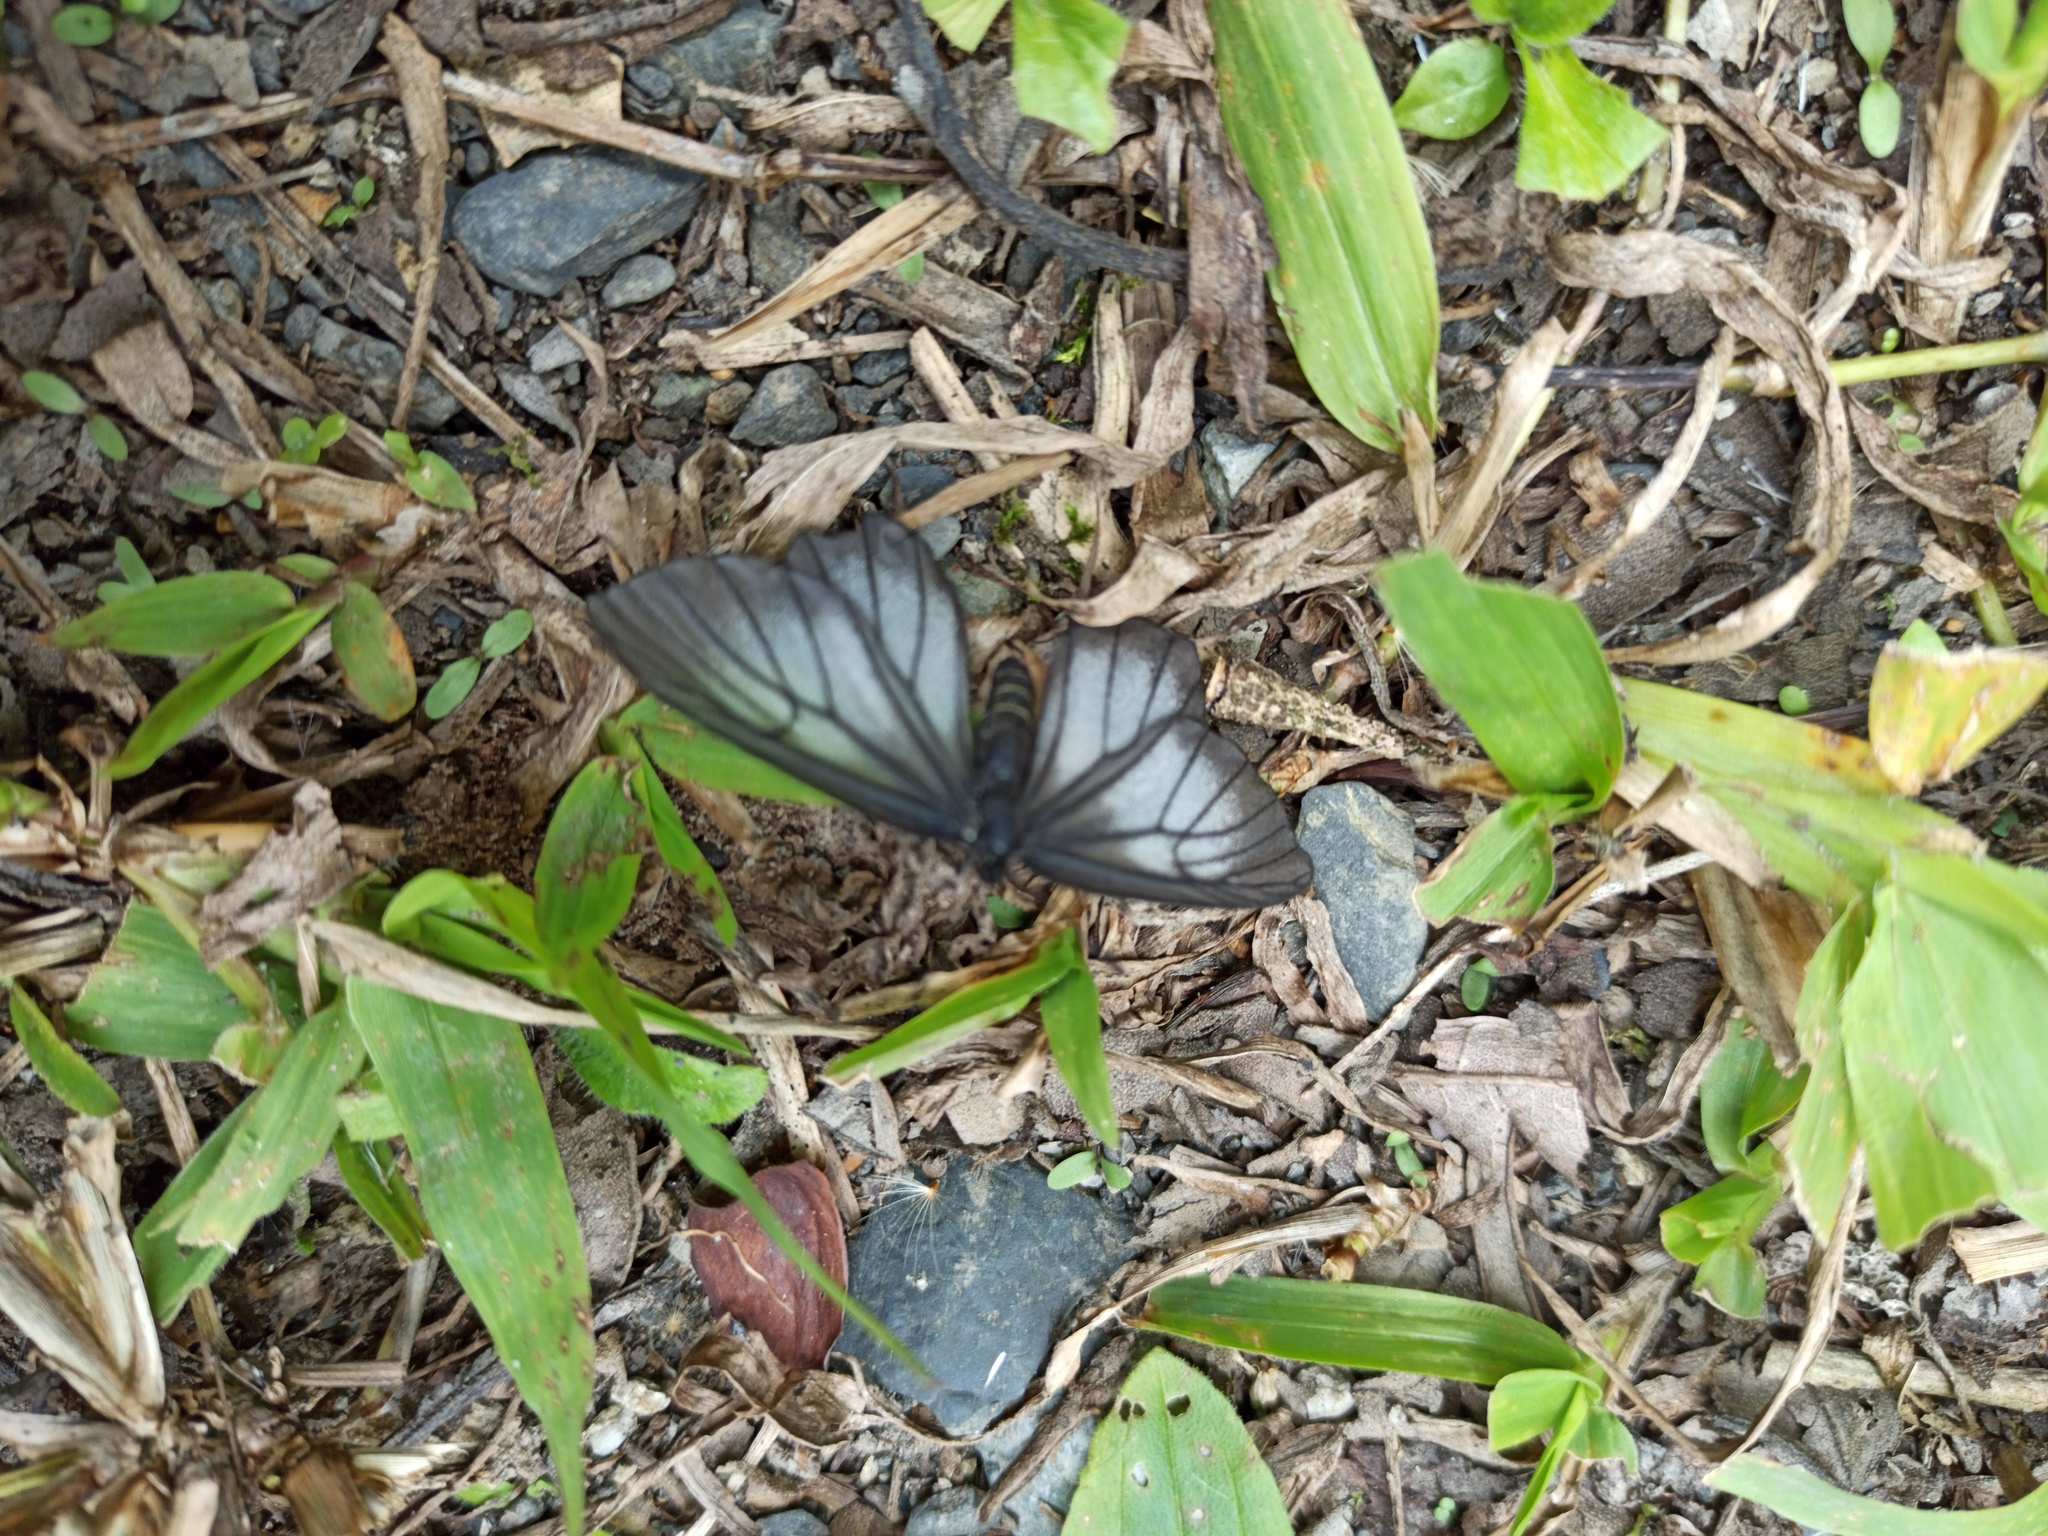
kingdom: Animalia
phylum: Arthropoda
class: Insecta
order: Lepidoptera
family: Riodinidae
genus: Styx
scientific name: Styx infernalis
